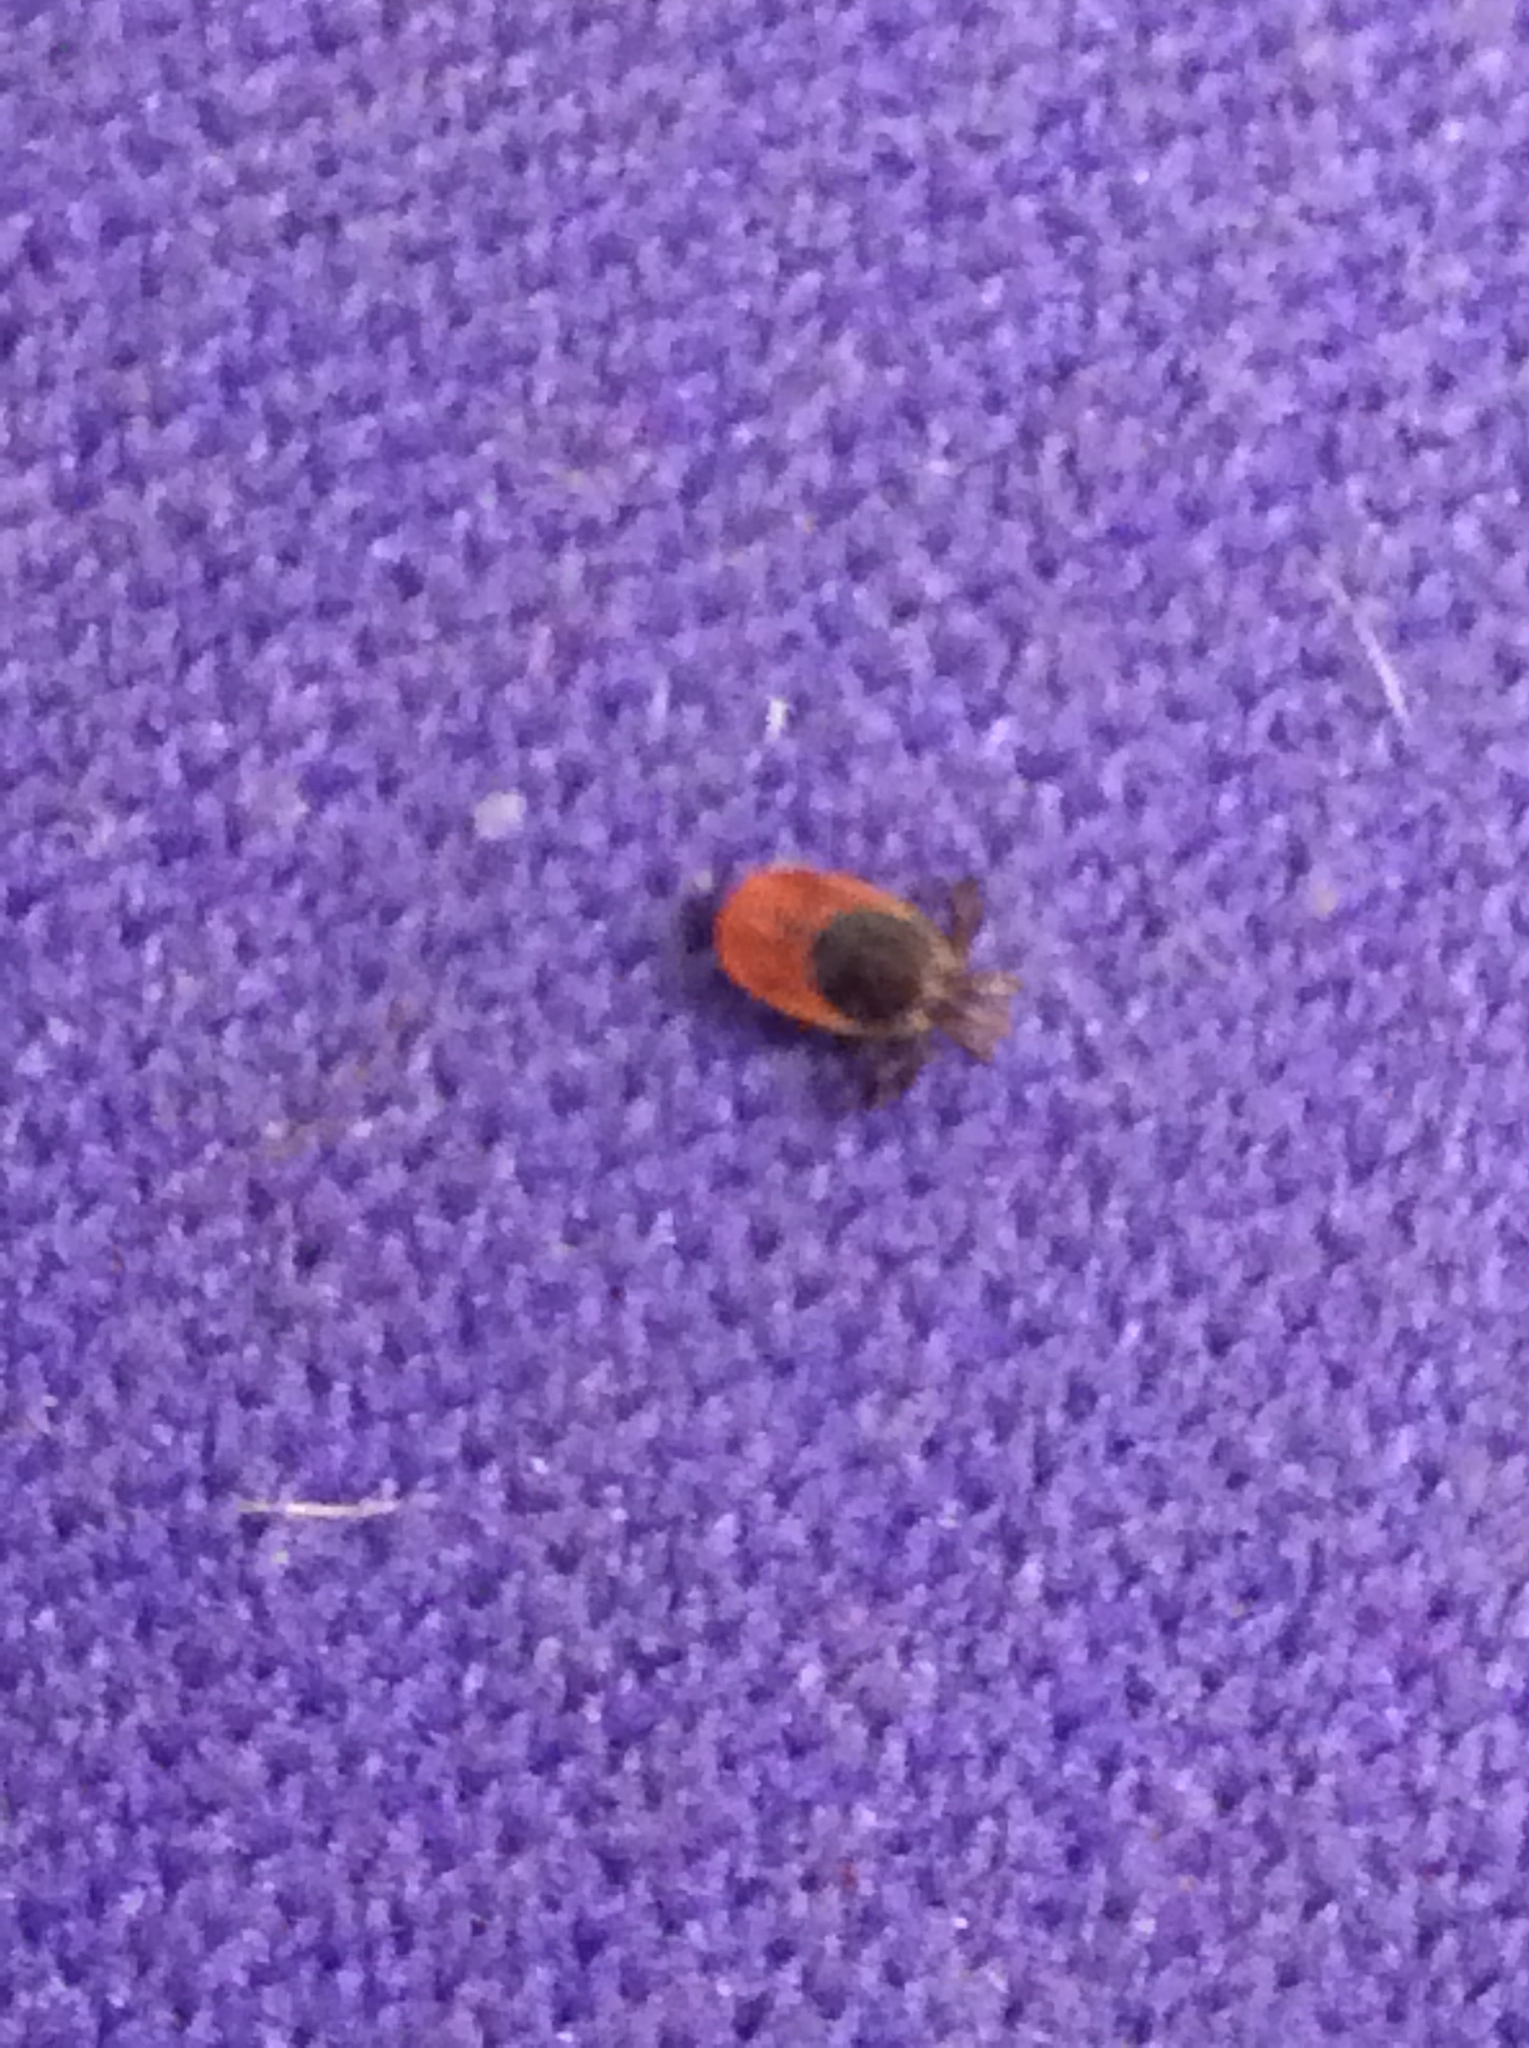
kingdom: Animalia
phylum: Arthropoda
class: Arachnida
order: Ixodida
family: Ixodidae
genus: Ixodes
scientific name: Ixodes scapularis
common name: Black legged tick
